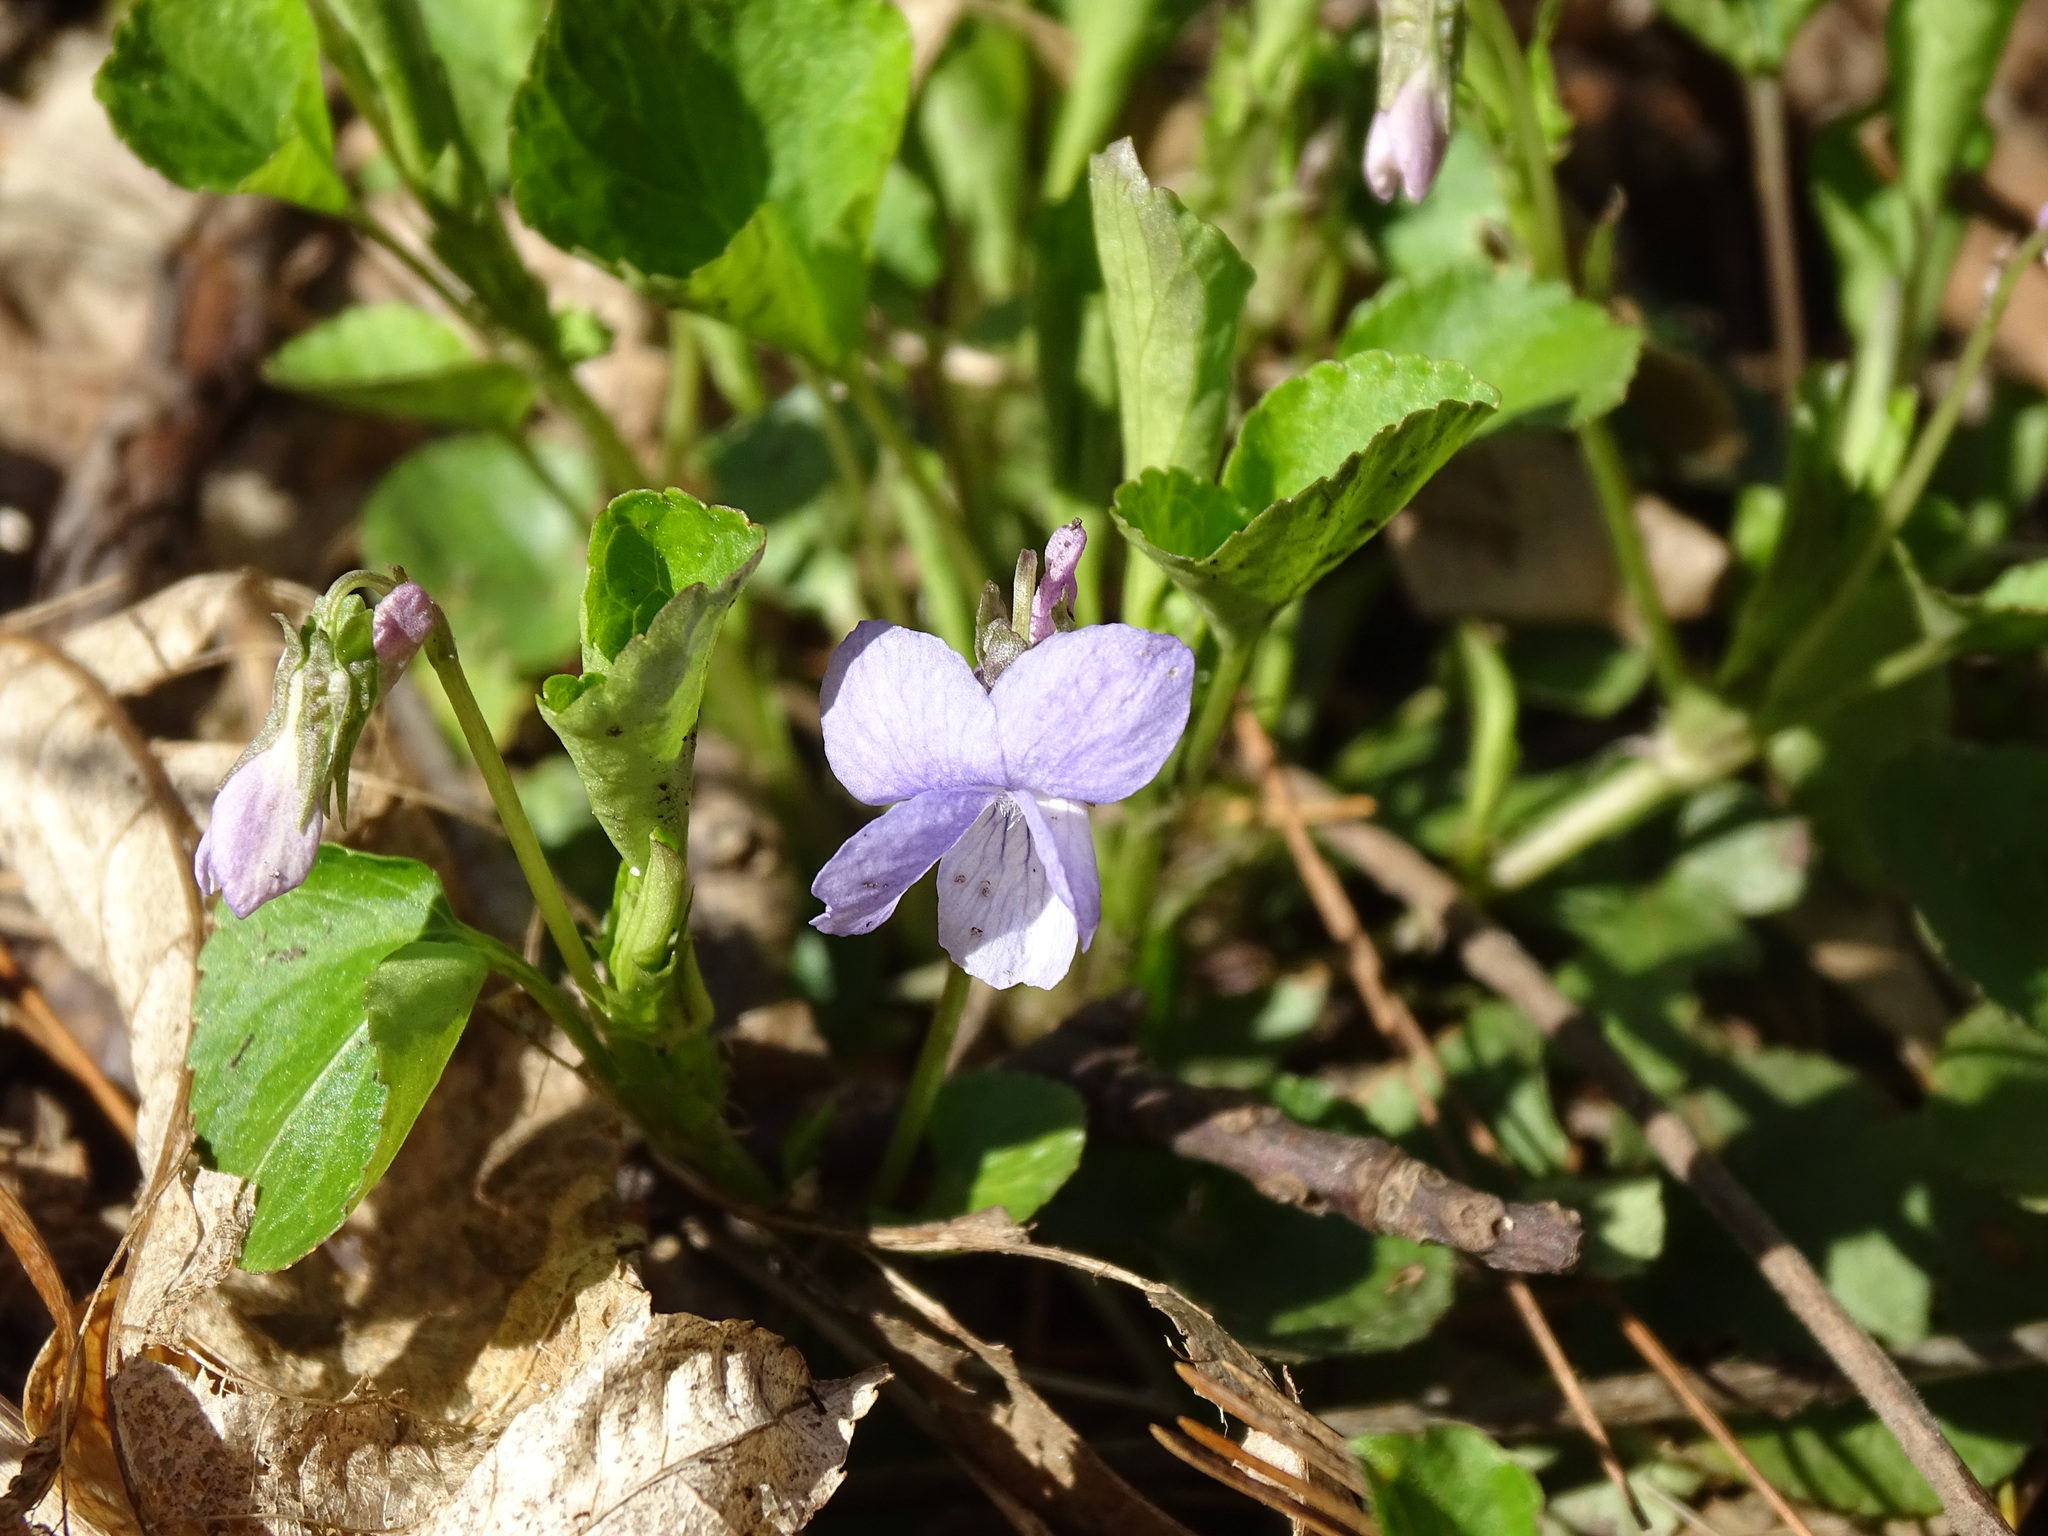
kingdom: Plantae
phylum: Tracheophyta
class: Magnoliopsida
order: Malpighiales
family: Violaceae
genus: Viola
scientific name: Viola labradorica
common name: Labrador violet
